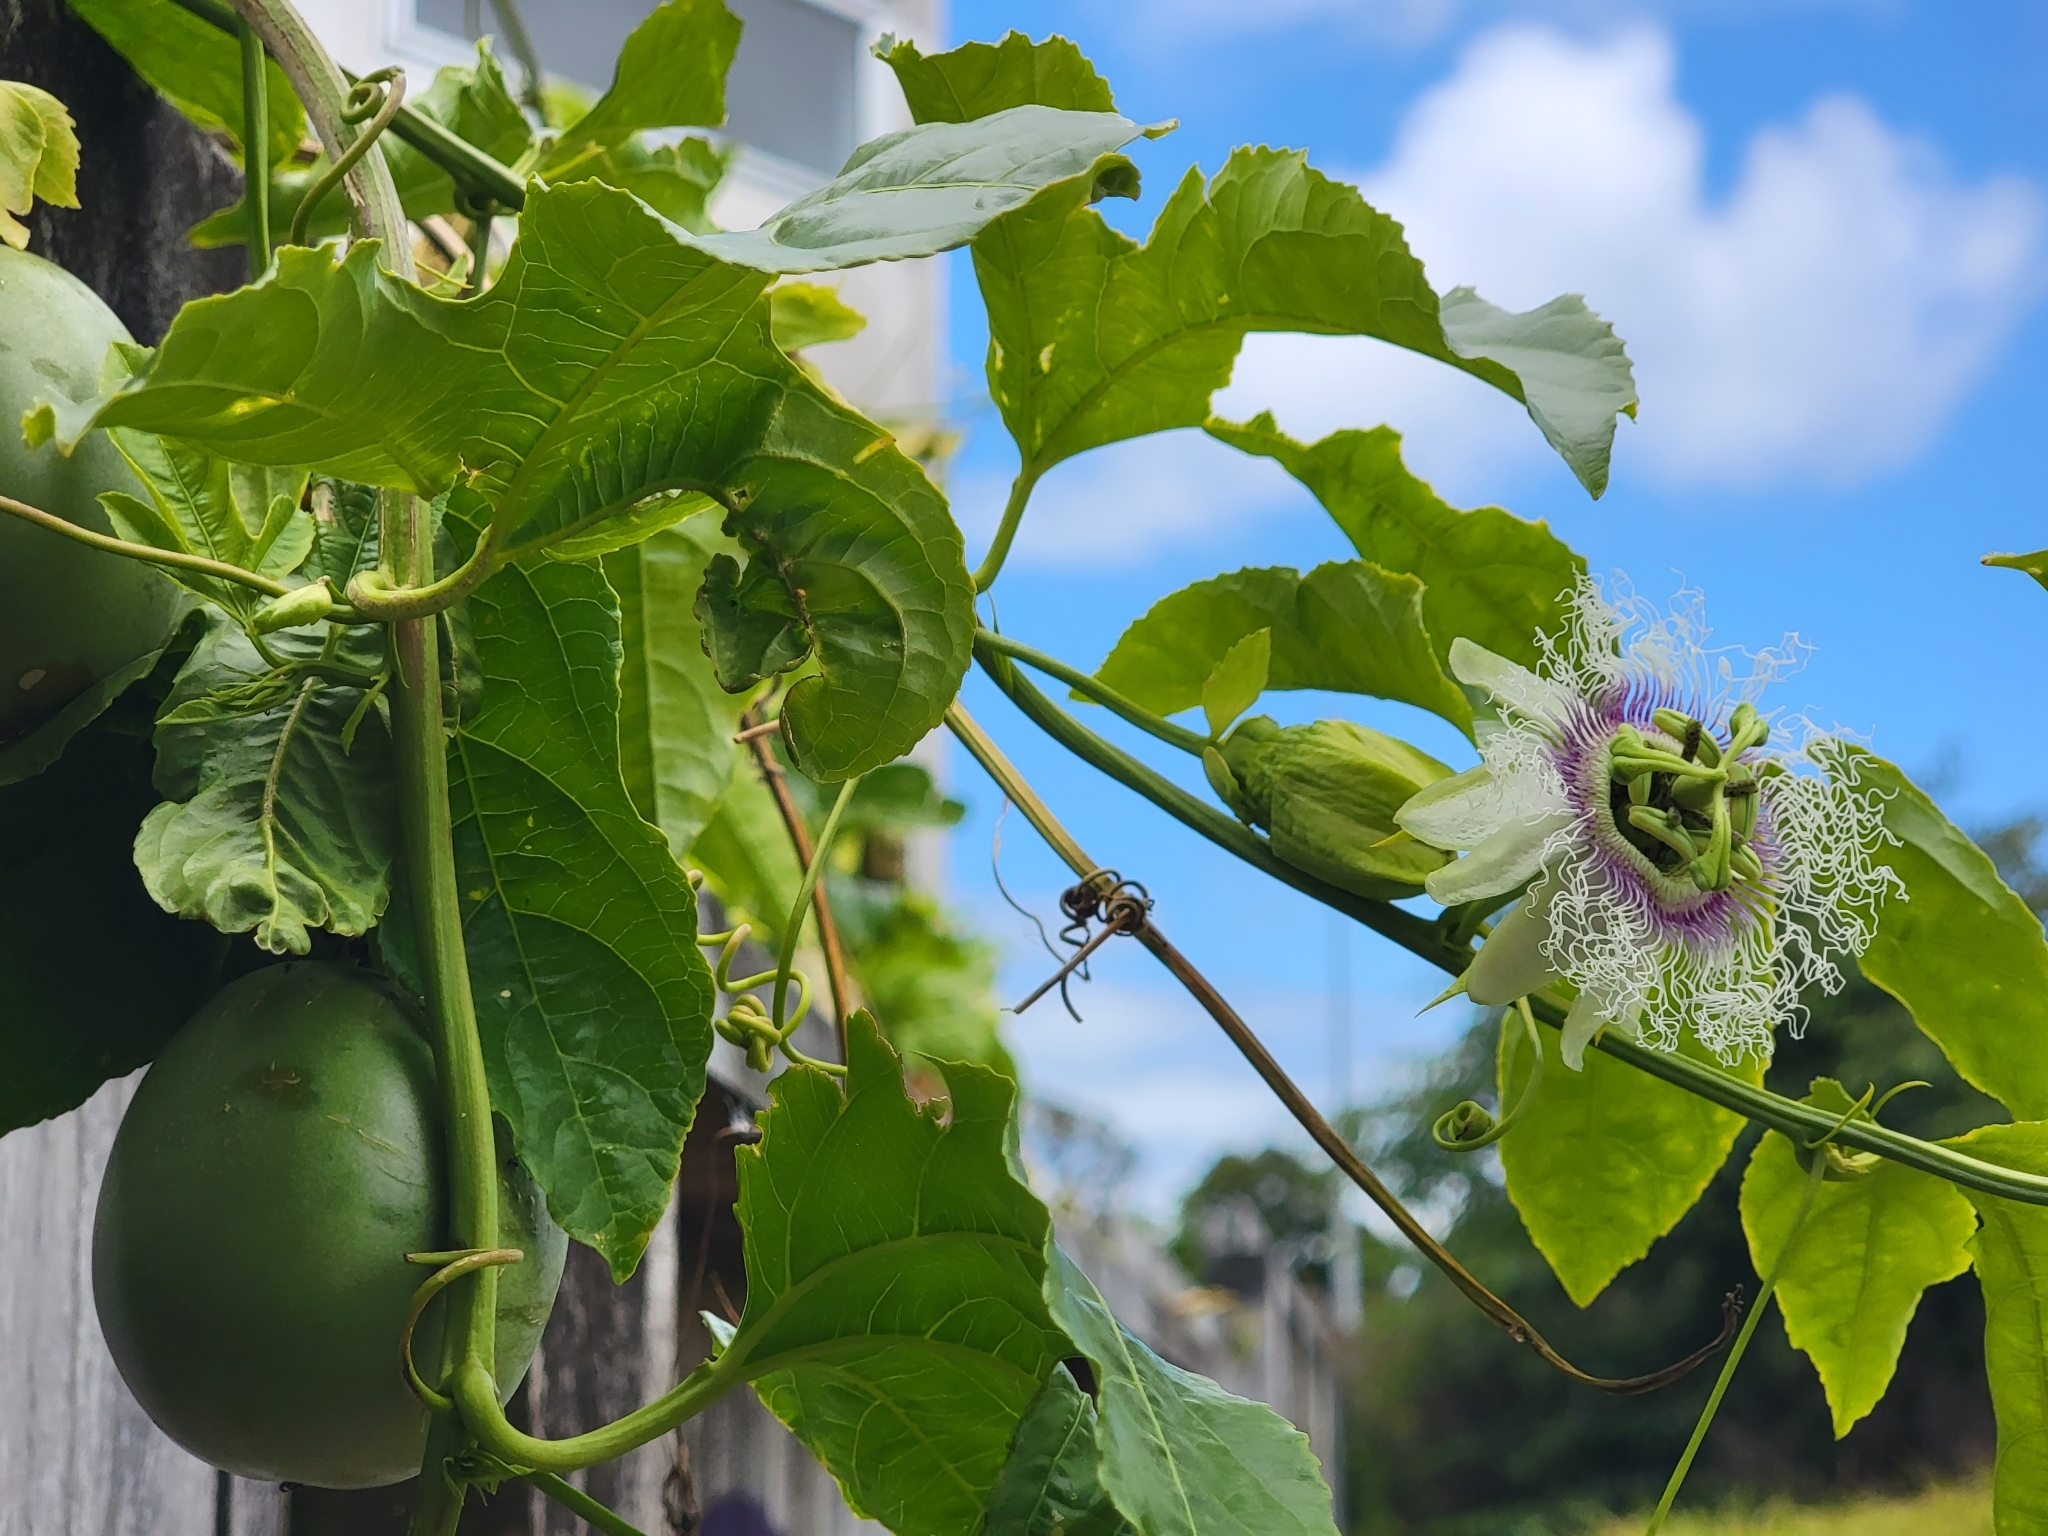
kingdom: Plantae
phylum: Tracheophyta
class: Magnoliopsida
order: Malpighiales
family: Passifloraceae
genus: Passiflora
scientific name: Passiflora edulis
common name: Purple granadilla
